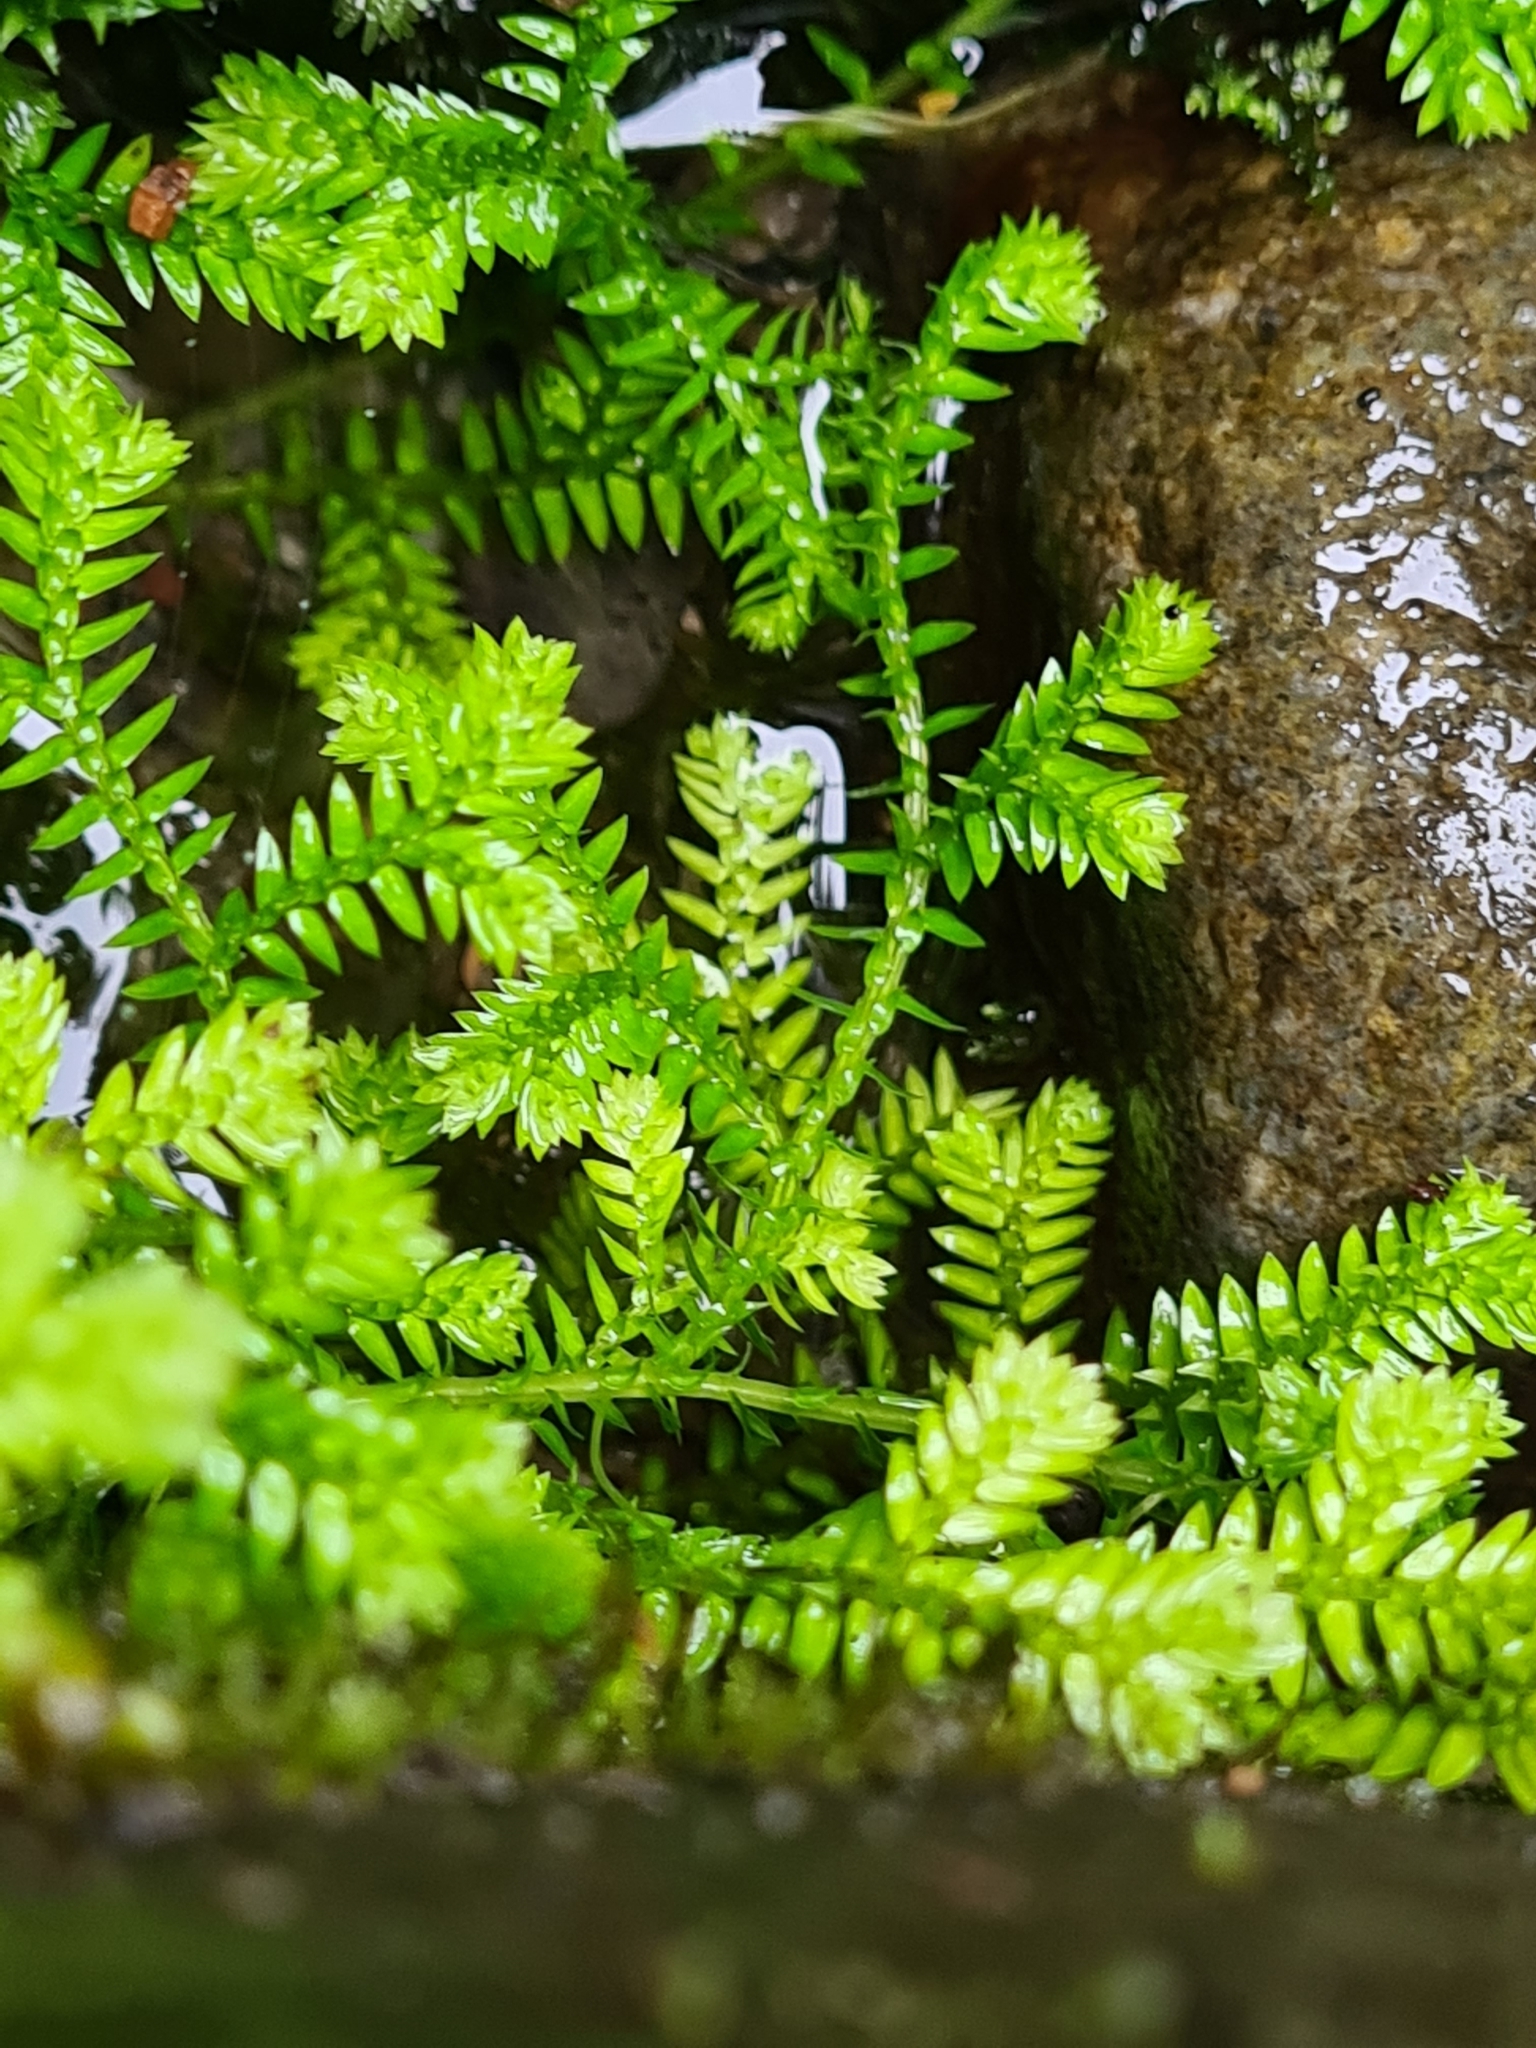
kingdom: Plantae
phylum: Tracheophyta
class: Lycopodiopsida
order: Selaginellales
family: Selaginellaceae
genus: Selaginella
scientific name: Selaginella kraussiana
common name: Krauss' spikemoss
